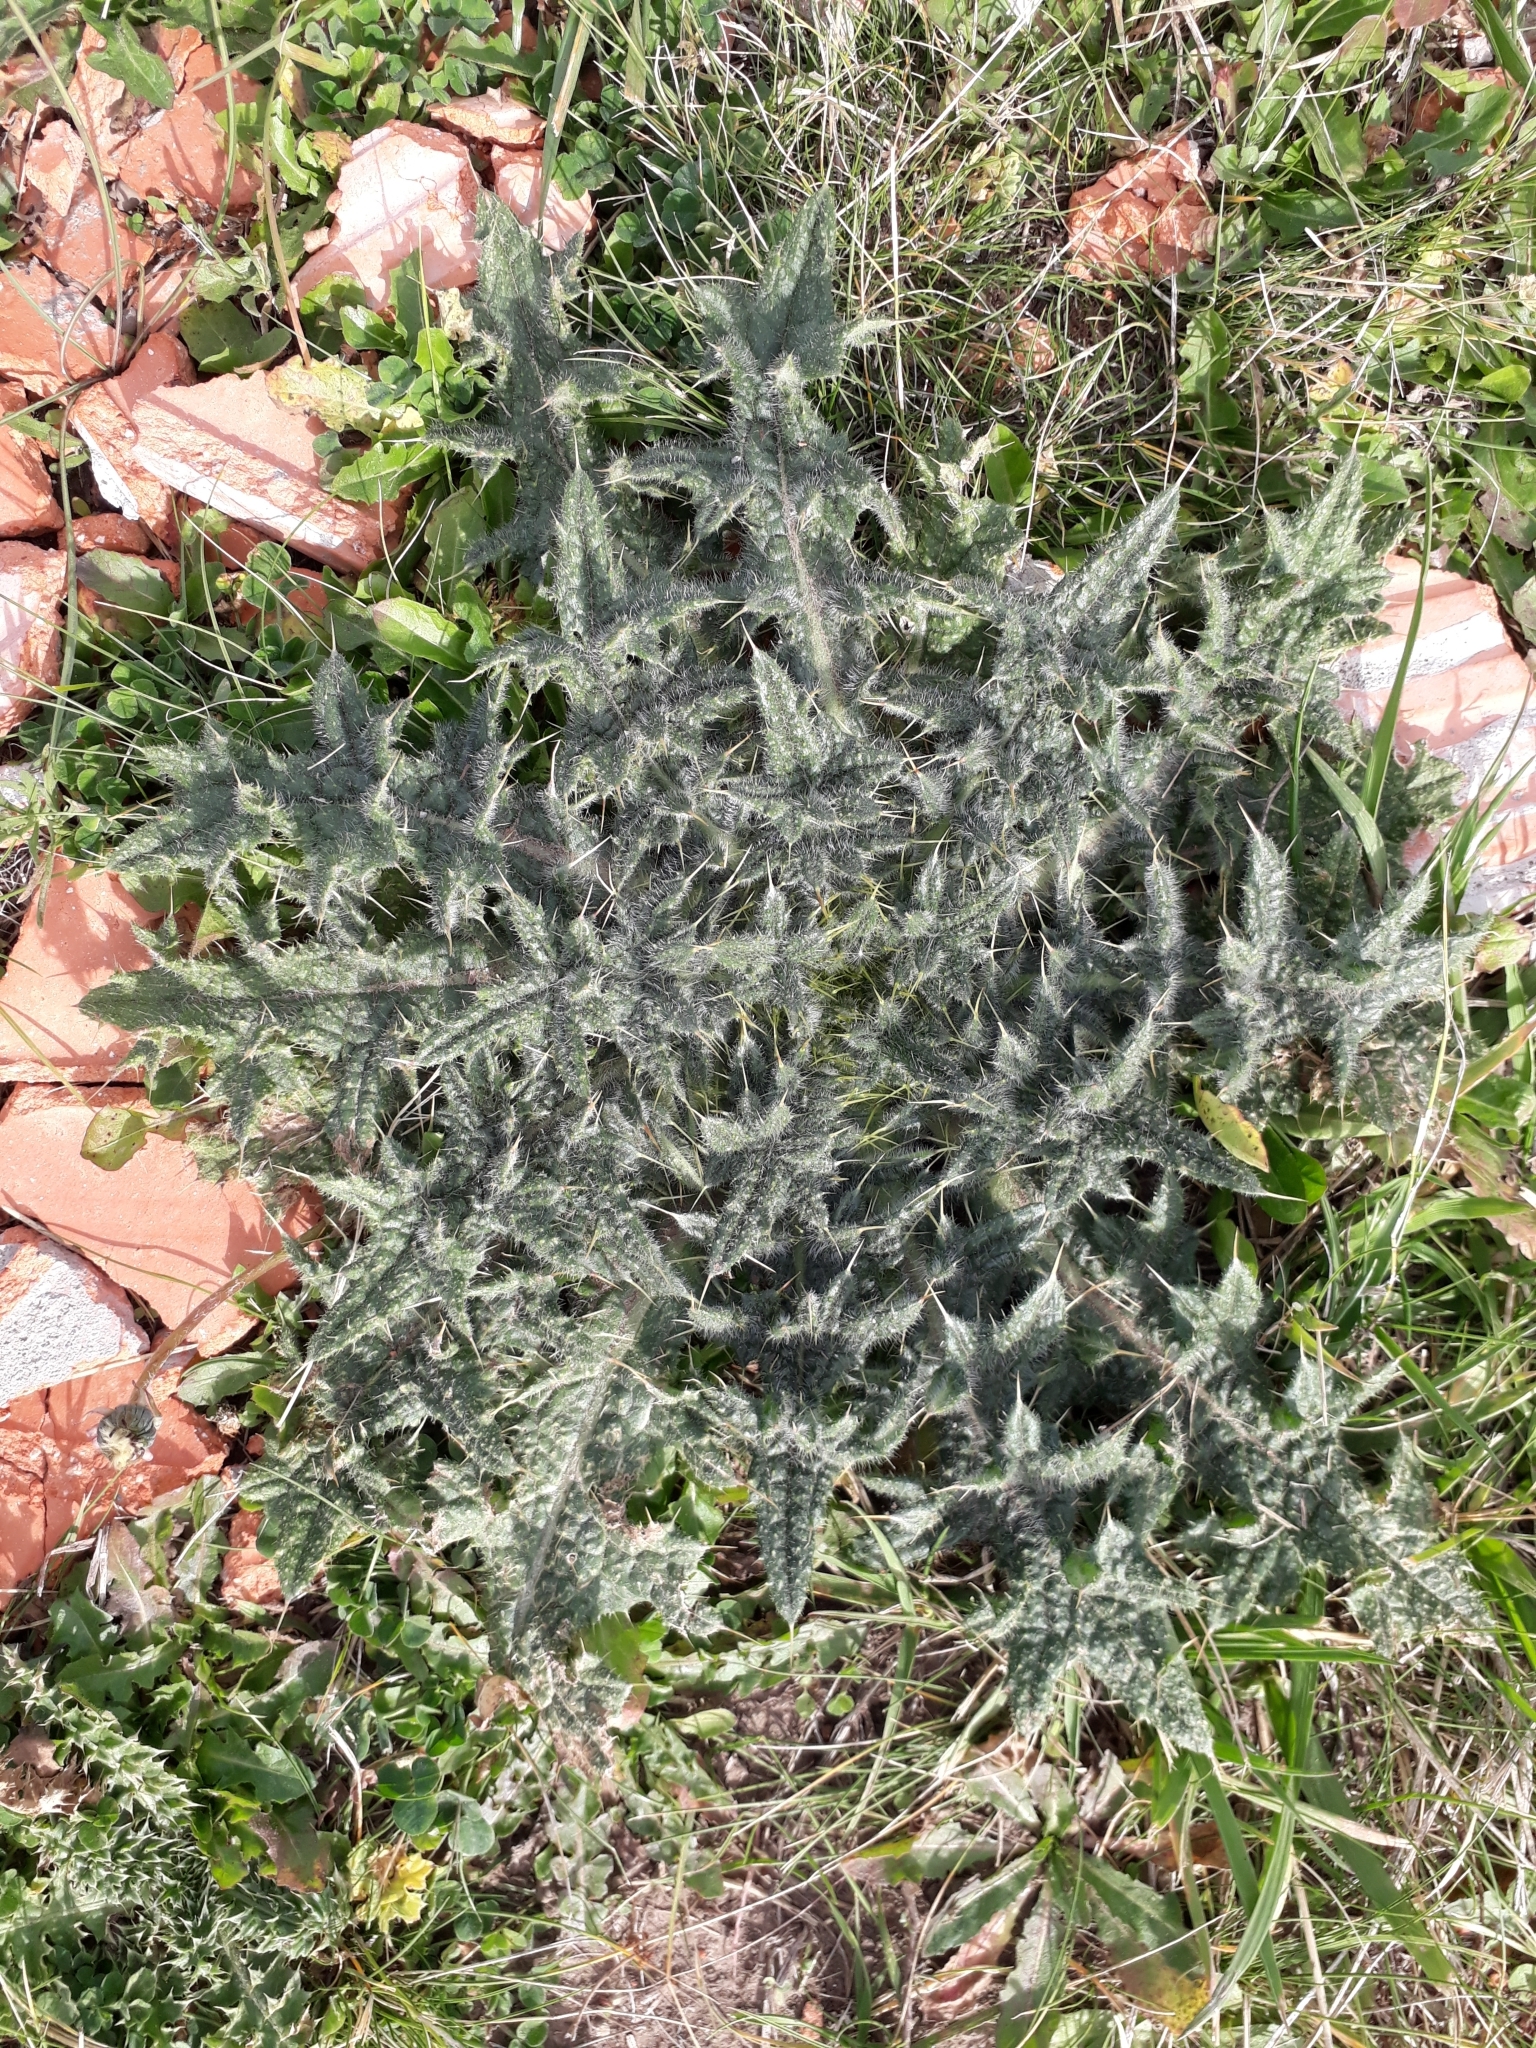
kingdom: Plantae
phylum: Tracheophyta
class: Magnoliopsida
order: Asterales
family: Asteraceae
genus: Cirsium
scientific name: Cirsium vulgare
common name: Bull thistle
